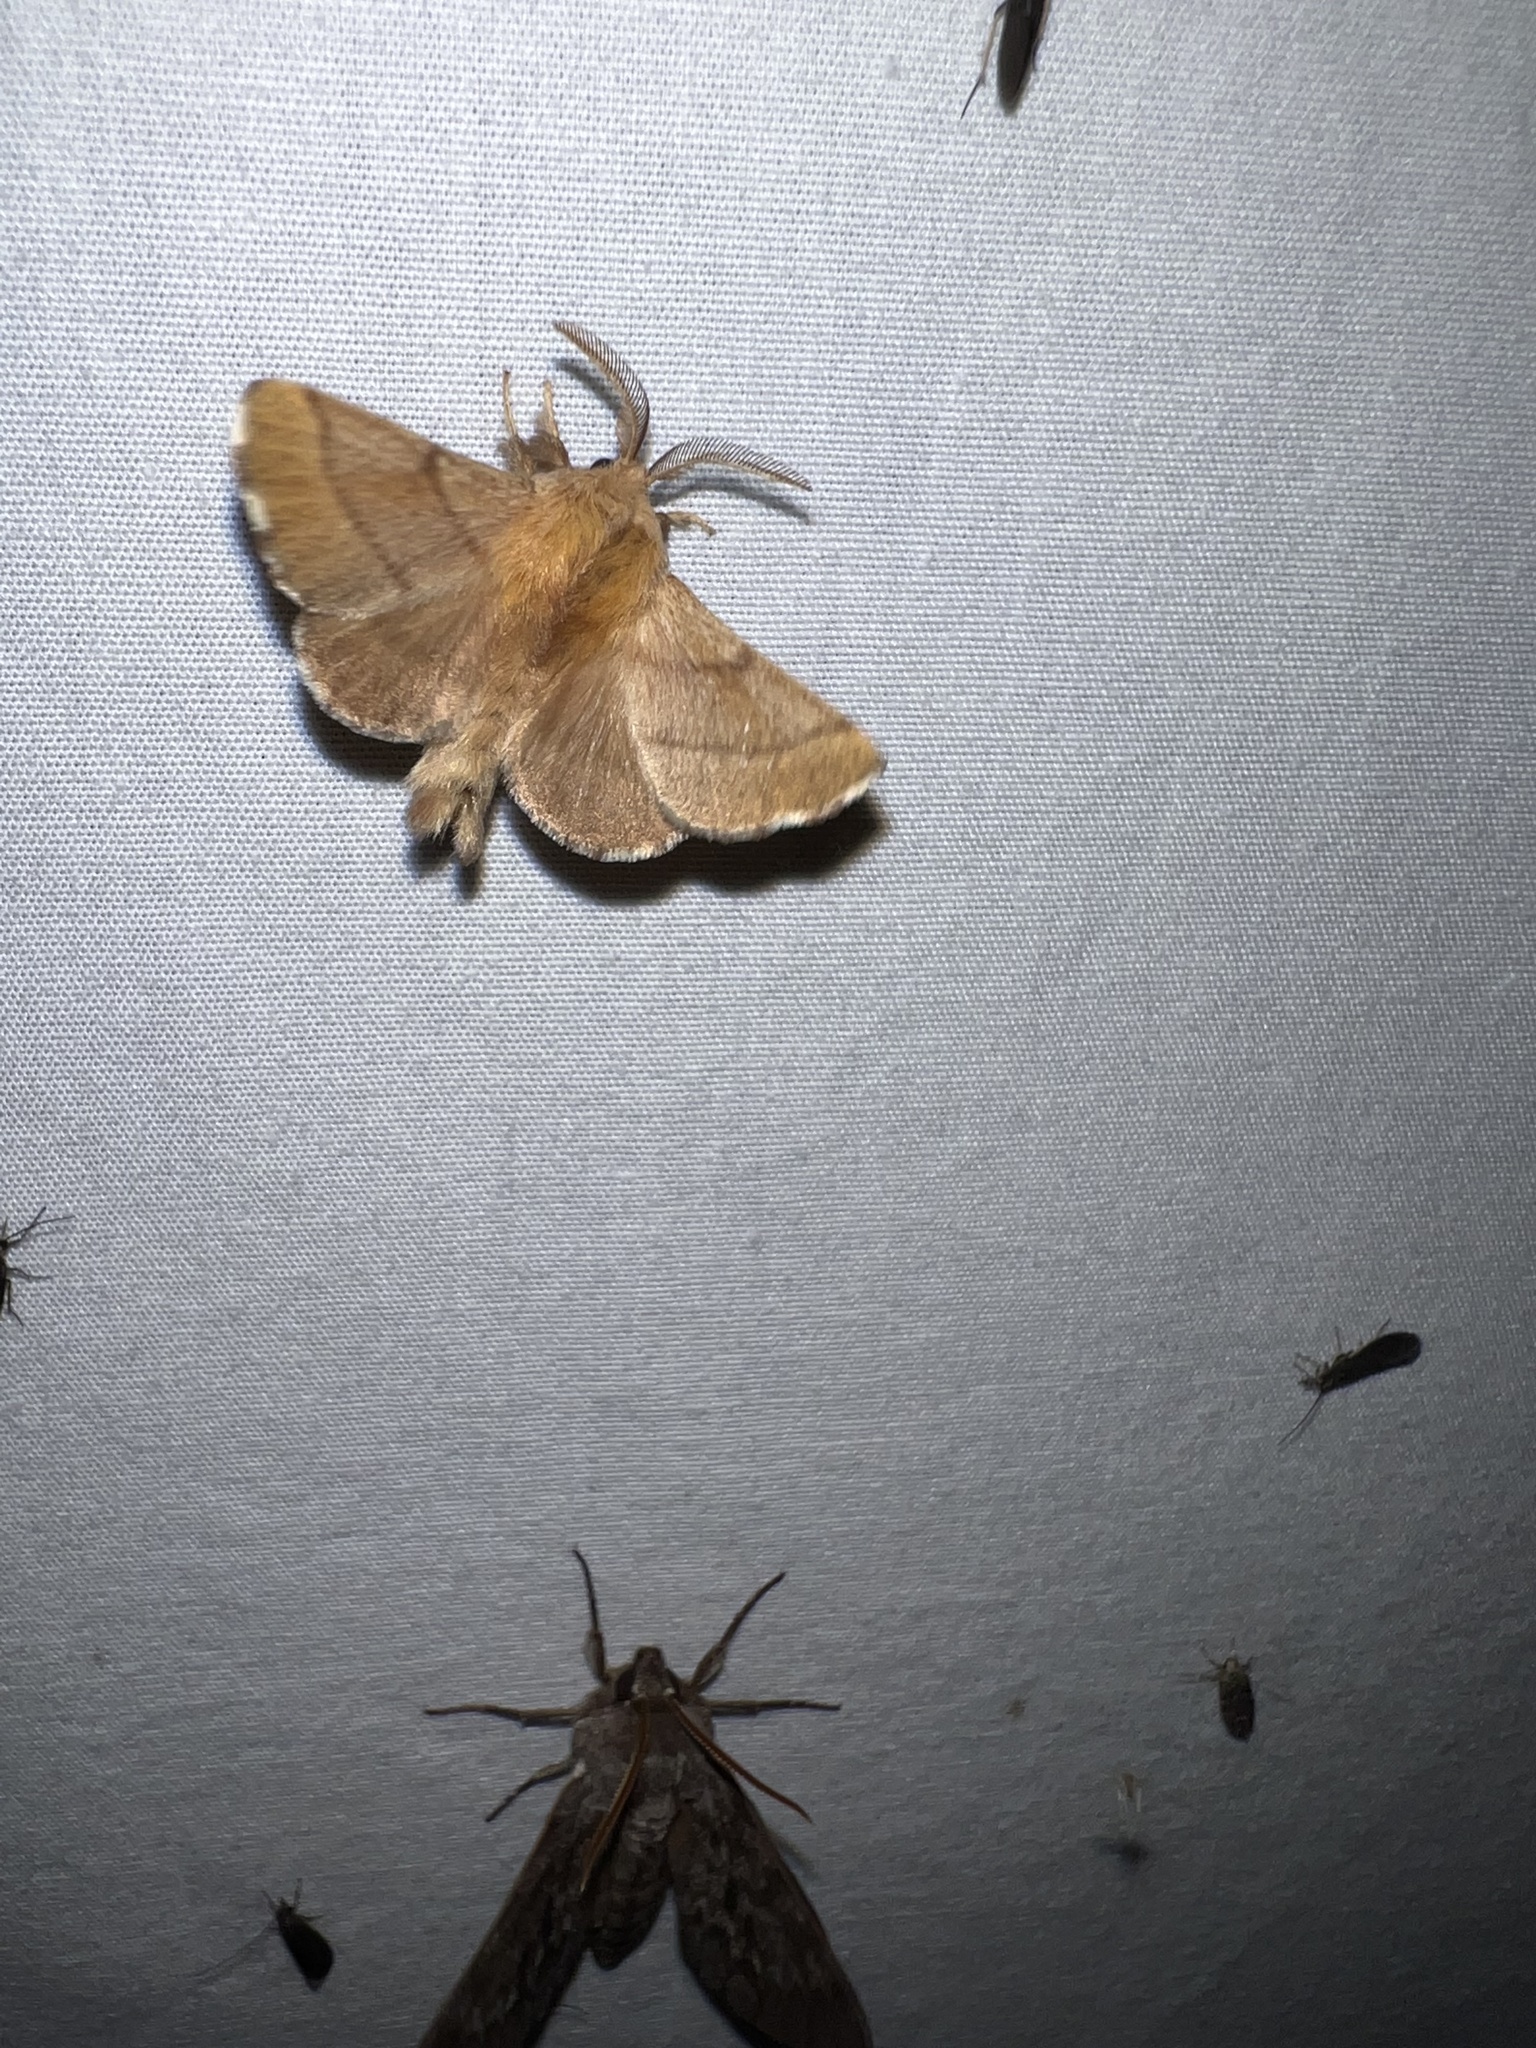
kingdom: Animalia
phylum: Arthropoda
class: Insecta
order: Lepidoptera
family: Lasiocampidae
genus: Malacosoma
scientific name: Malacosoma disstria
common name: Forest tent caterpillar
